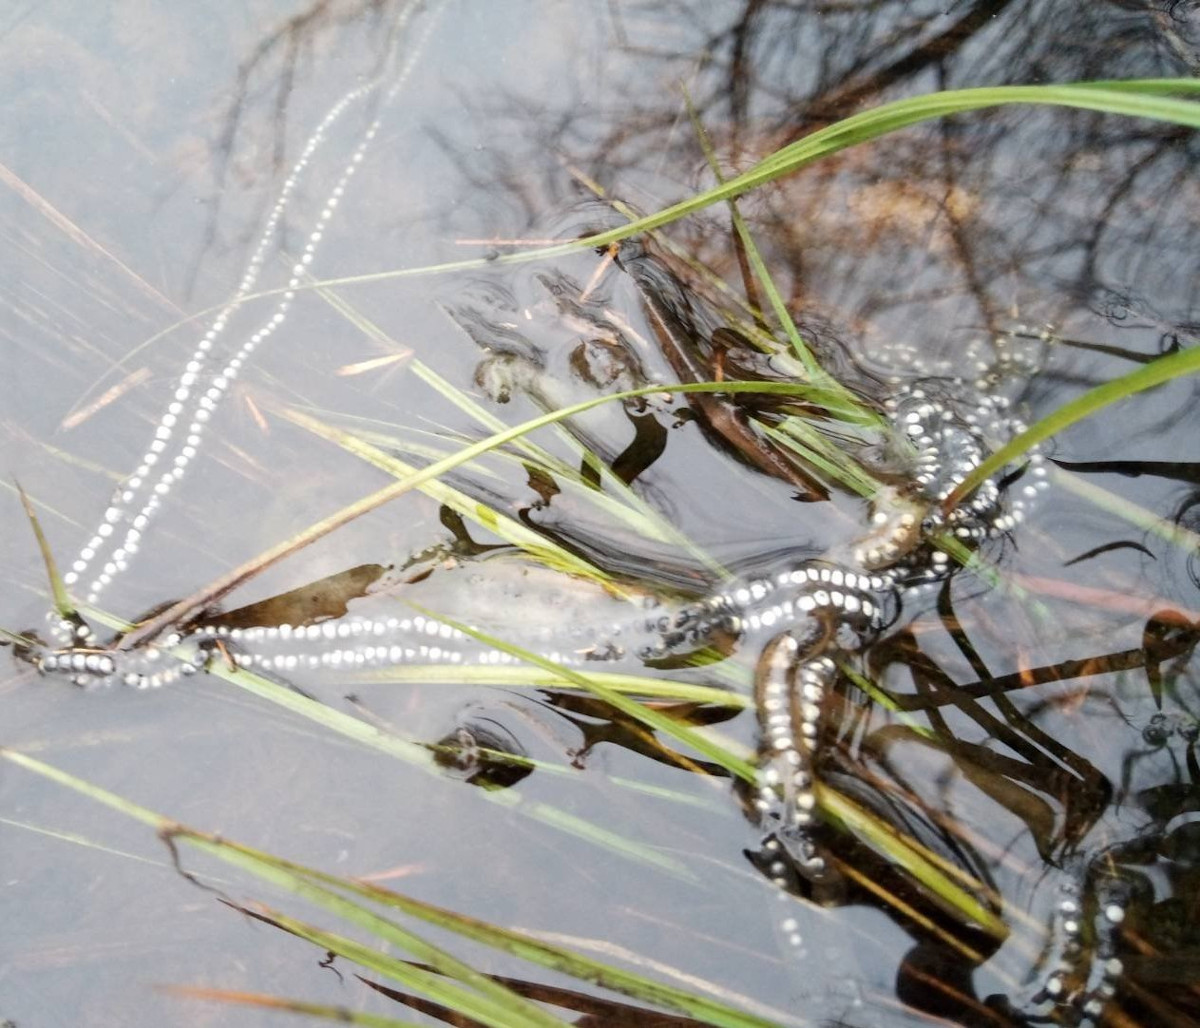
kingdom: Animalia
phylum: Chordata
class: Amphibia
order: Anura
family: Bufonidae
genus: Anaxyrus
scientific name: Anaxyrus americanus
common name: American toad
